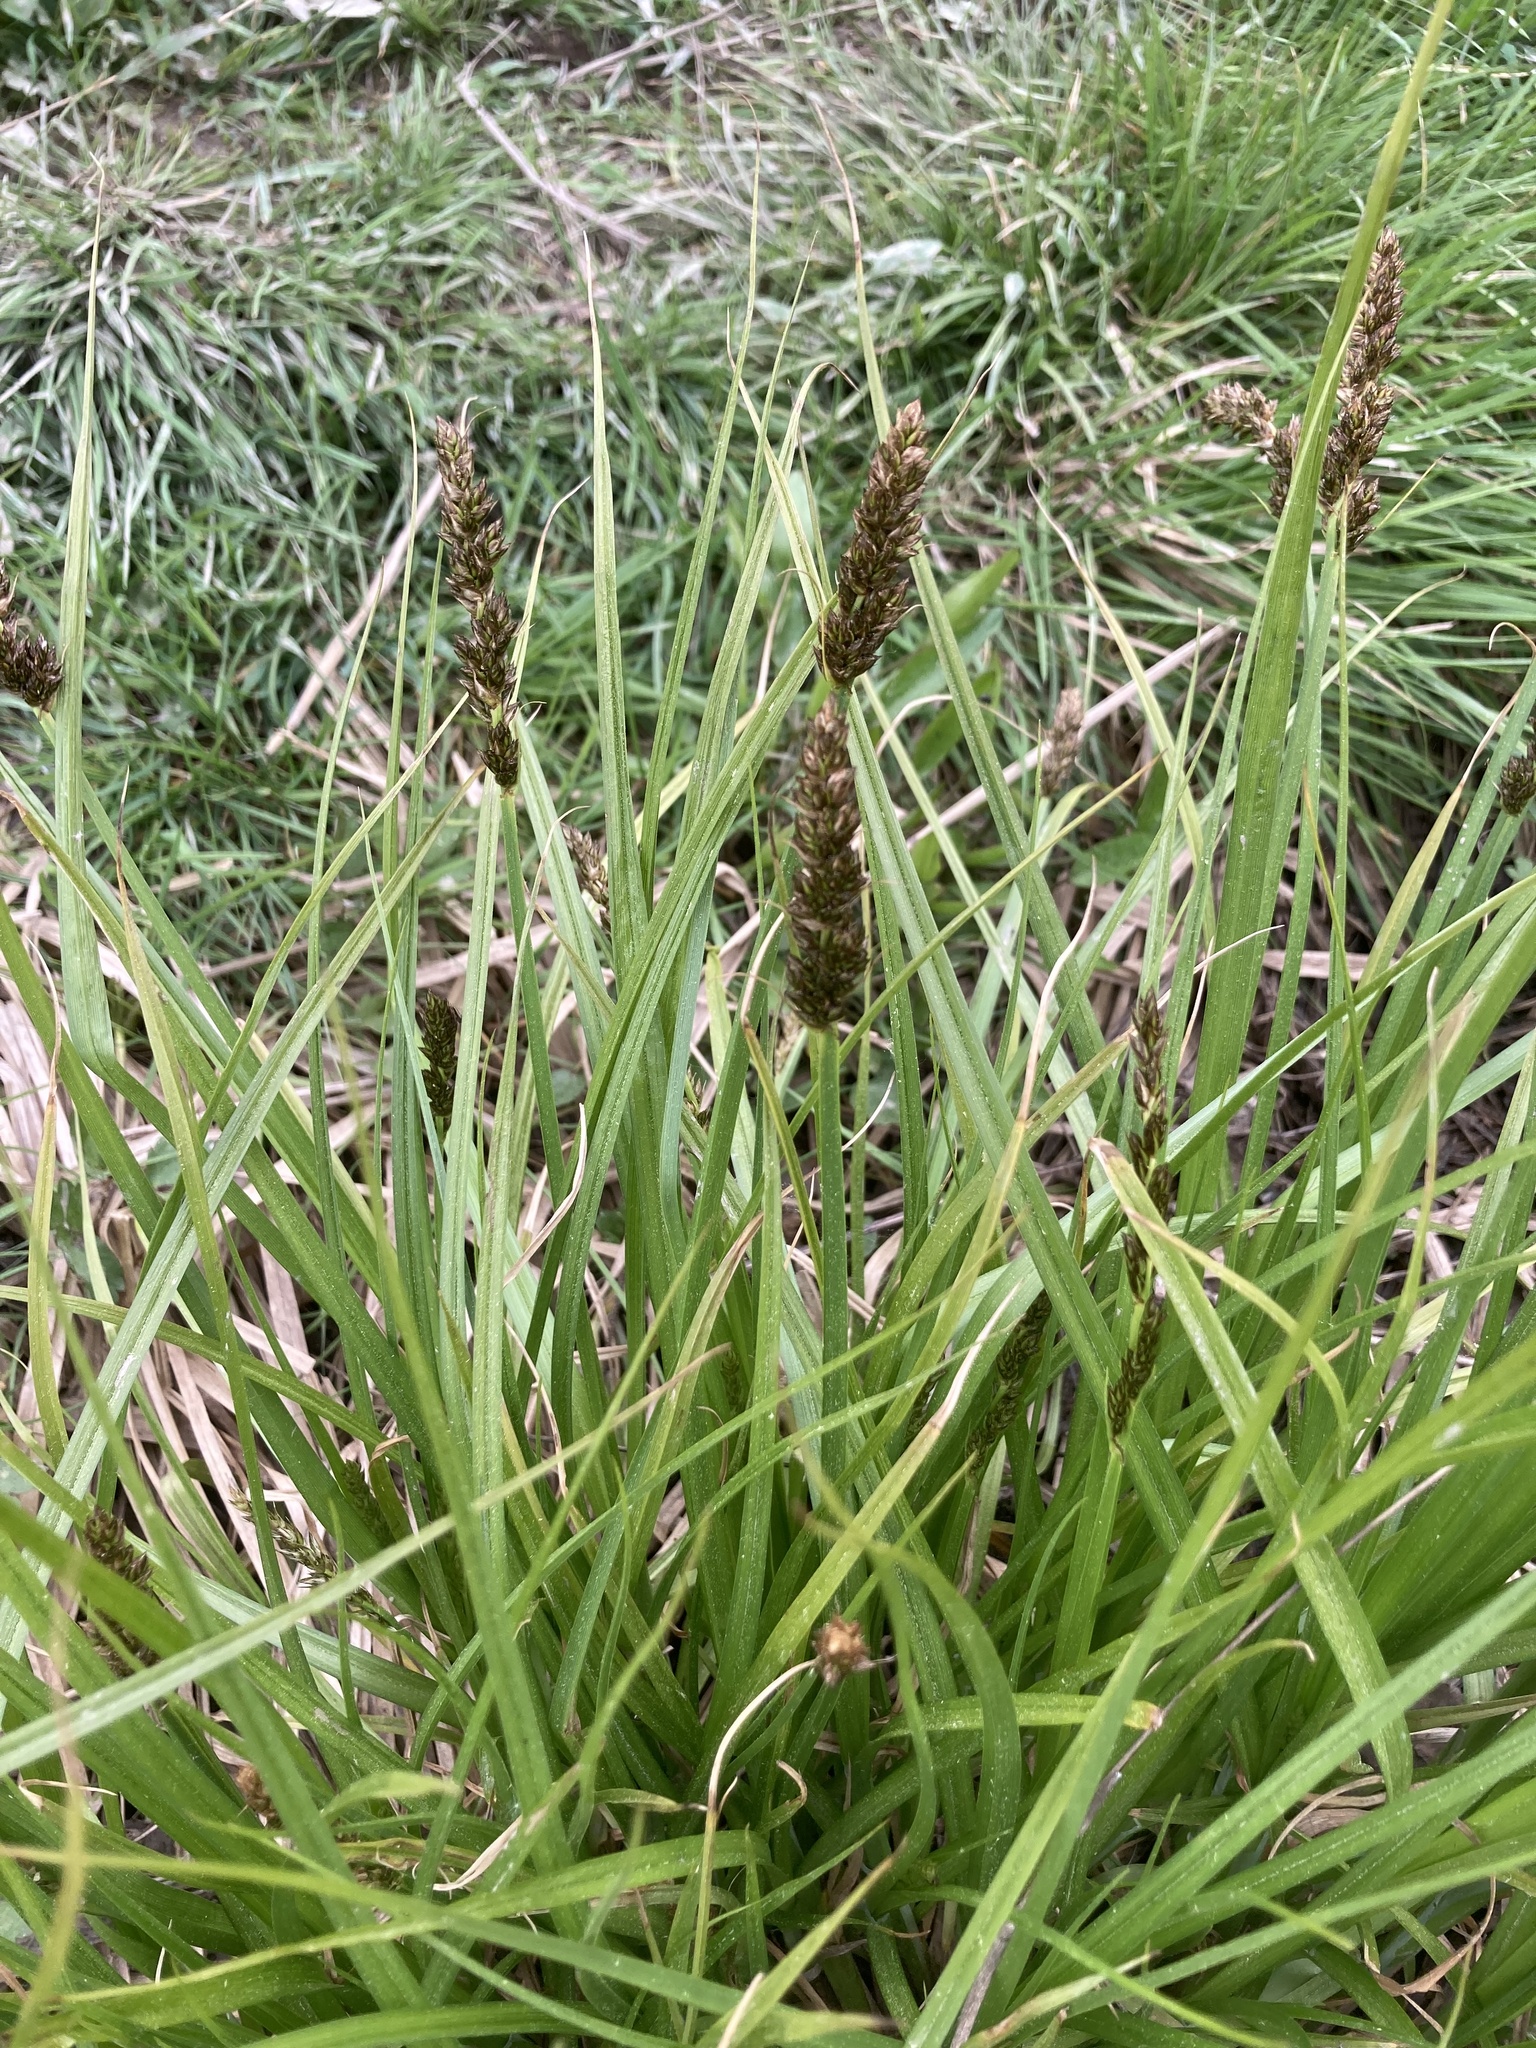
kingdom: Plantae
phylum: Tracheophyta
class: Liliopsida
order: Poales
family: Cyperaceae
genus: Carex
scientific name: Carex vulpina
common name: True fox-sedge
